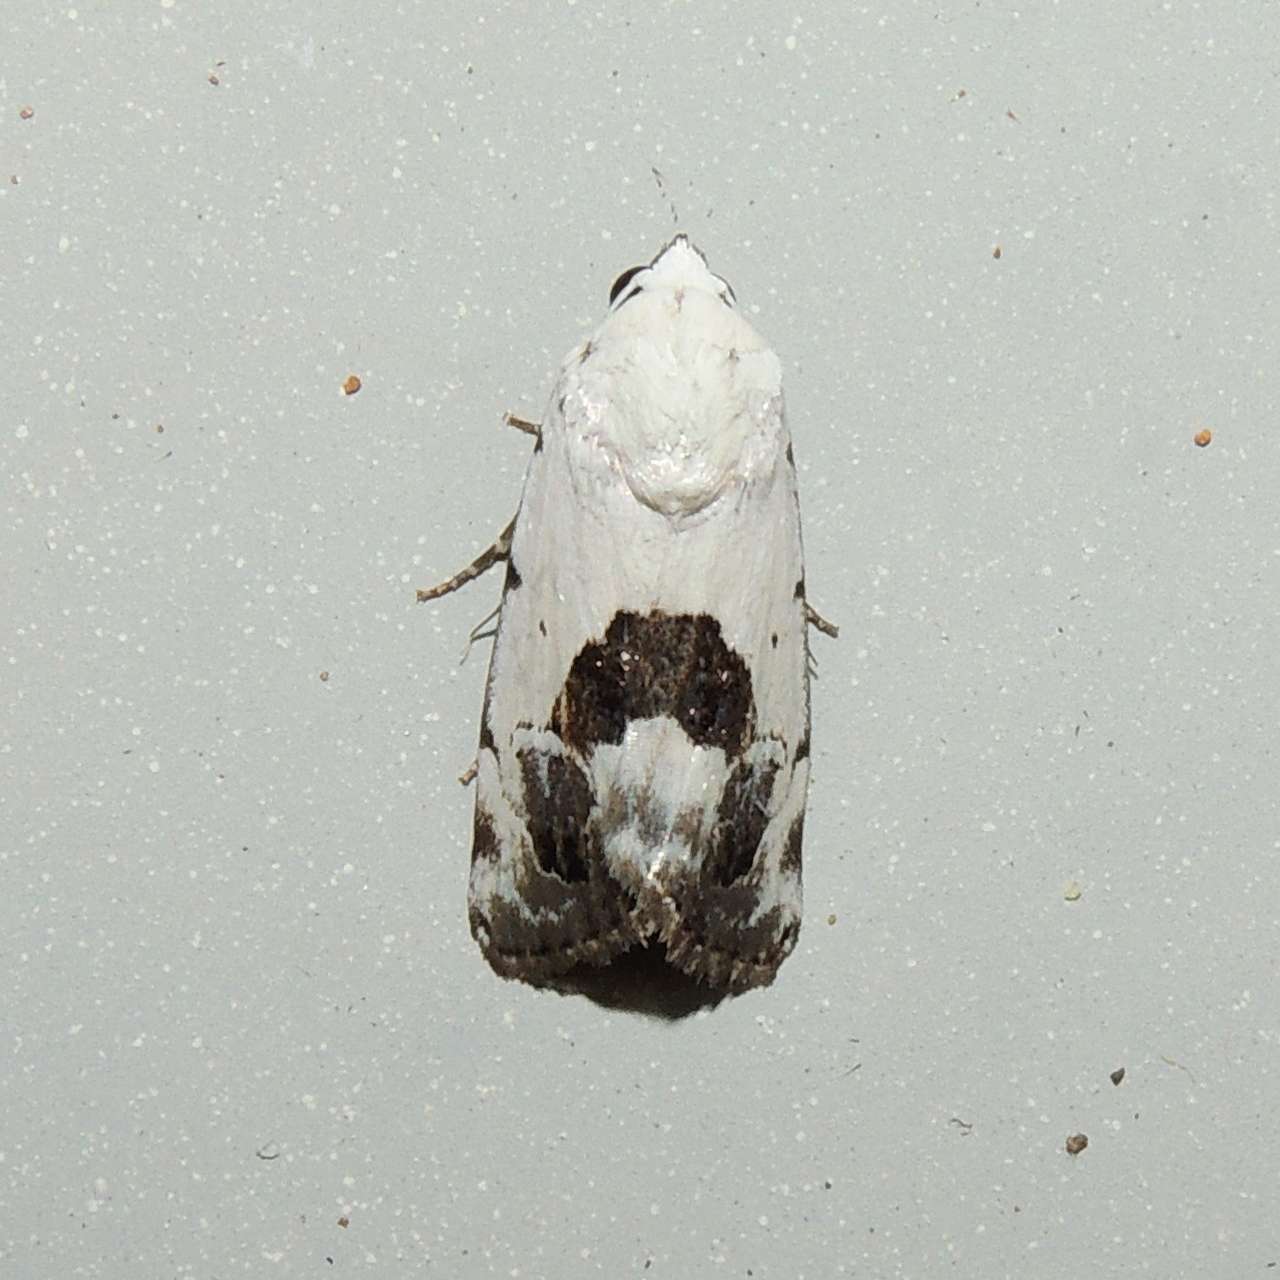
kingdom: Animalia
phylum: Arthropoda
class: Insecta
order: Lepidoptera
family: Nolidae
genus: Armactica
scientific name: Armactica conchidia
